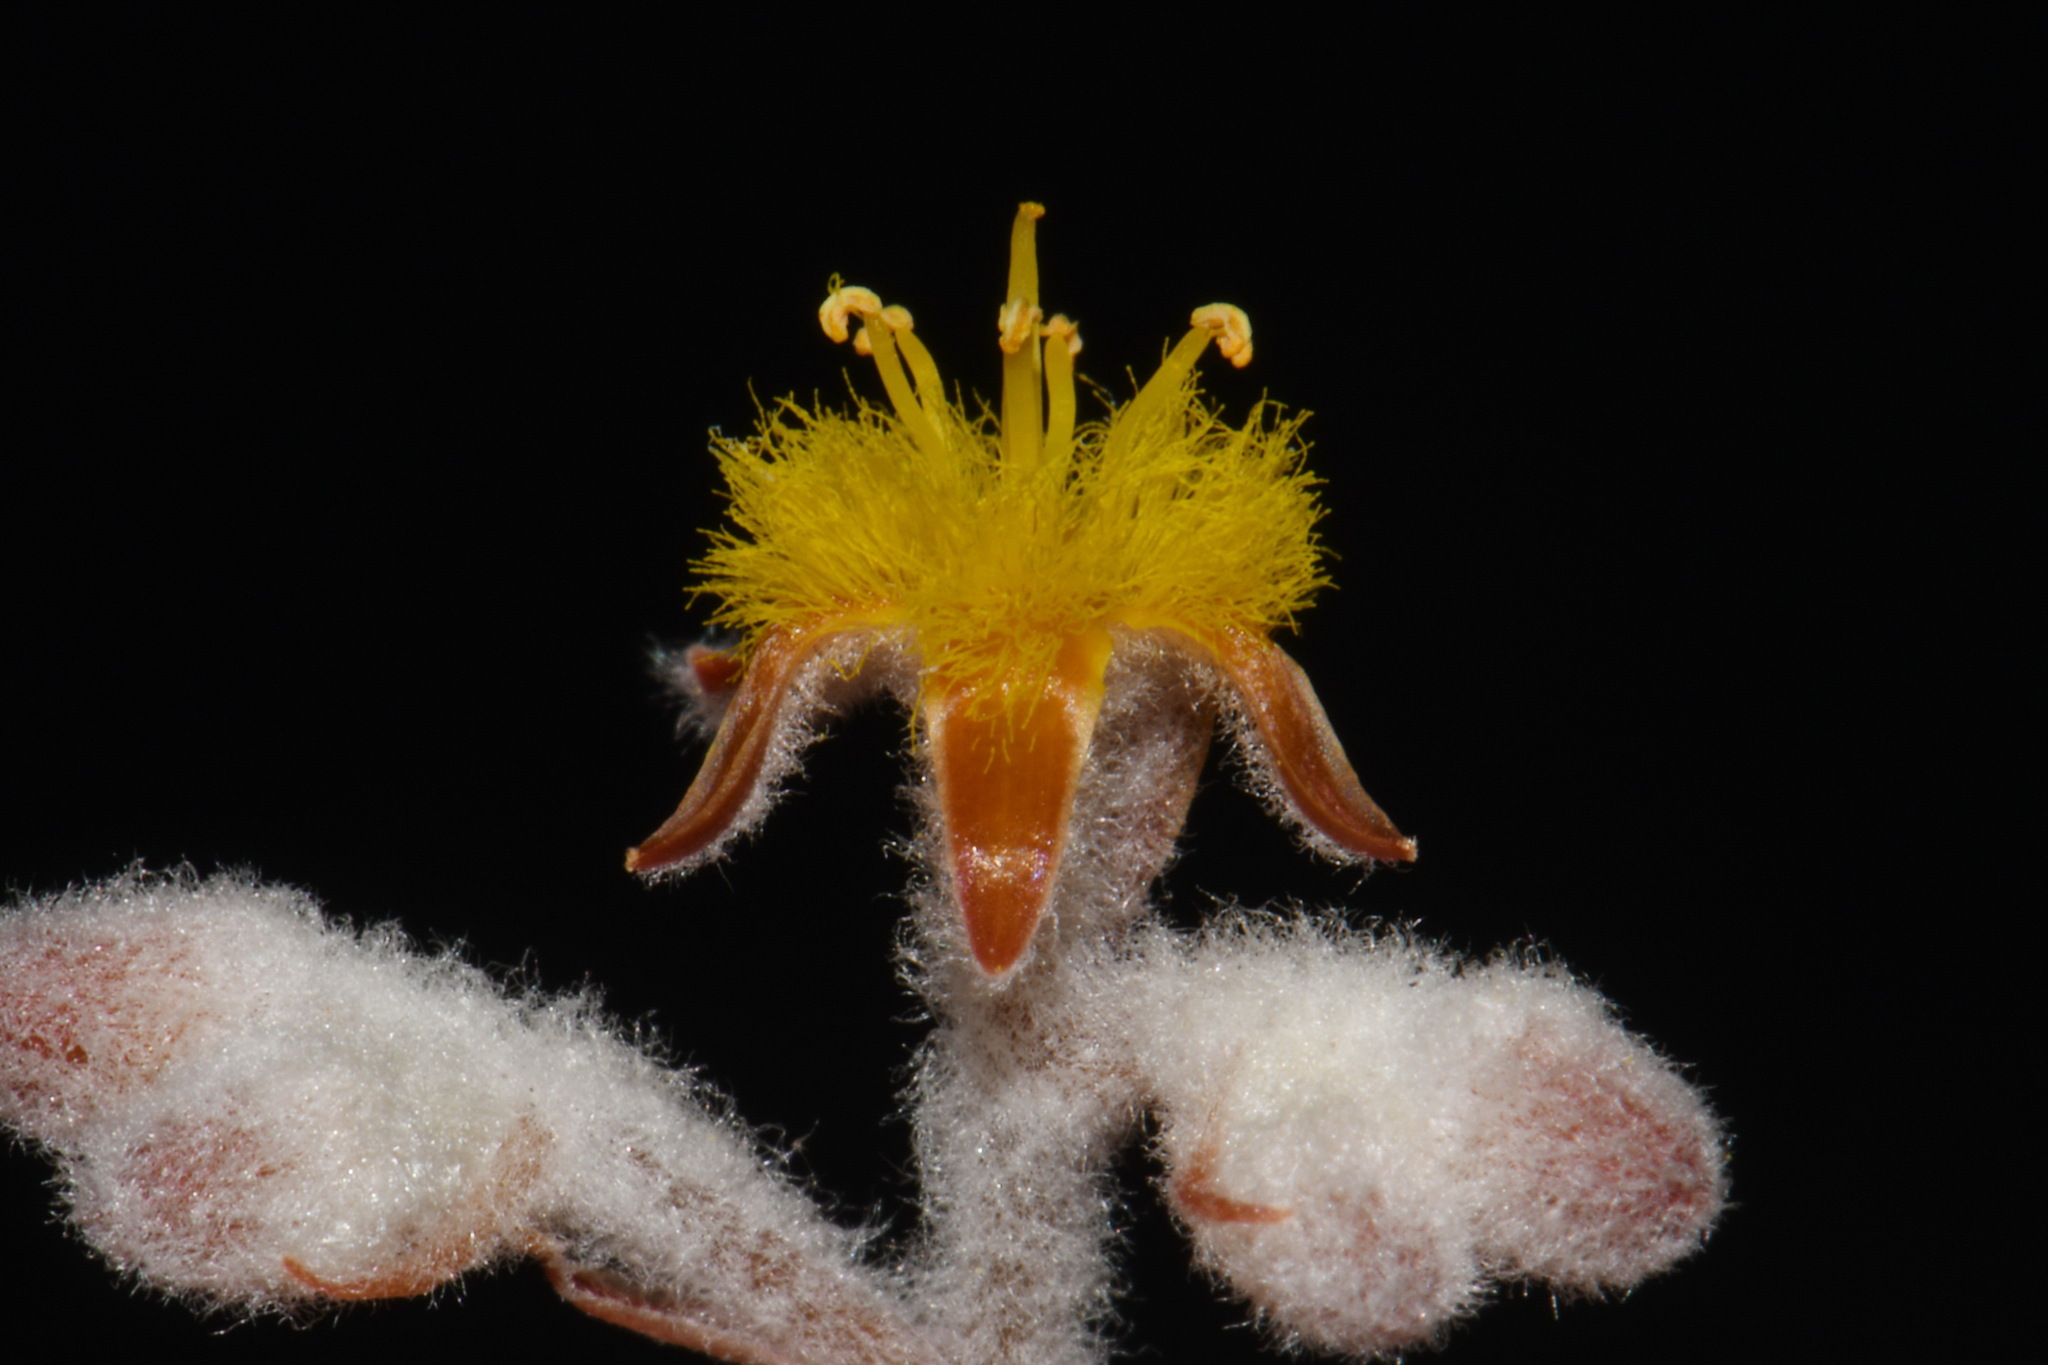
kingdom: Plantae
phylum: Tracheophyta
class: Liliopsida
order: Dioscoreales
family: Nartheciaceae
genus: Lophiola
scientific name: Lophiola aurea
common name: Golden-crest
